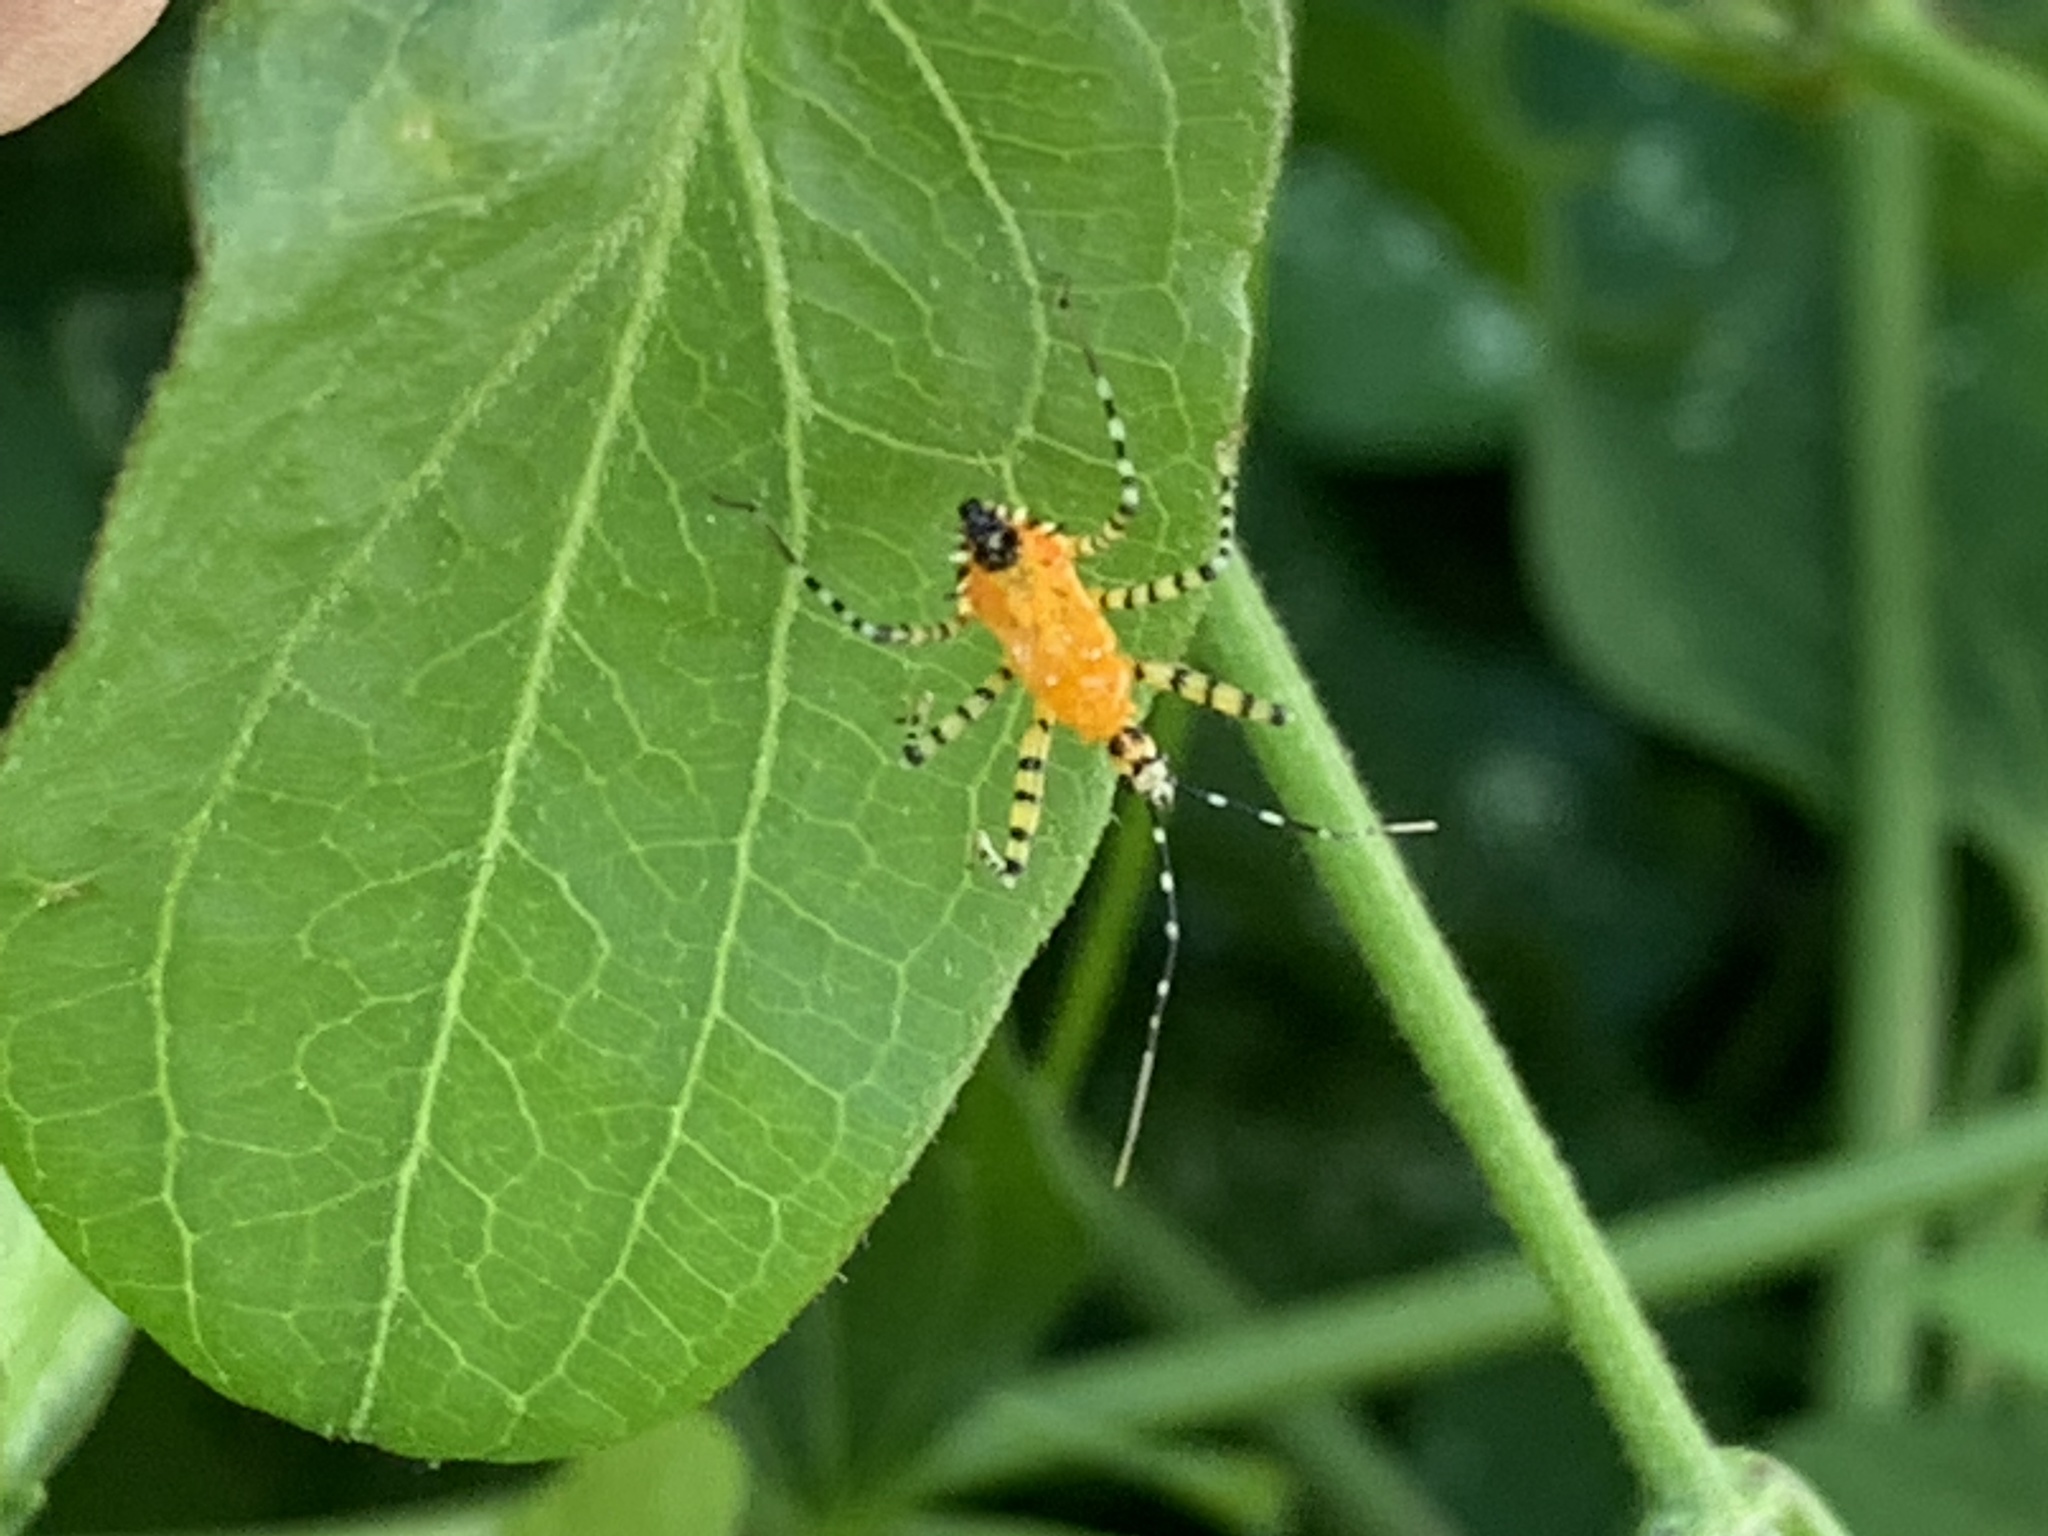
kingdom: Animalia
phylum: Arthropoda
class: Insecta
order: Hemiptera
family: Reduviidae
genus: Pselliopus
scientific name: Pselliopus barberi
